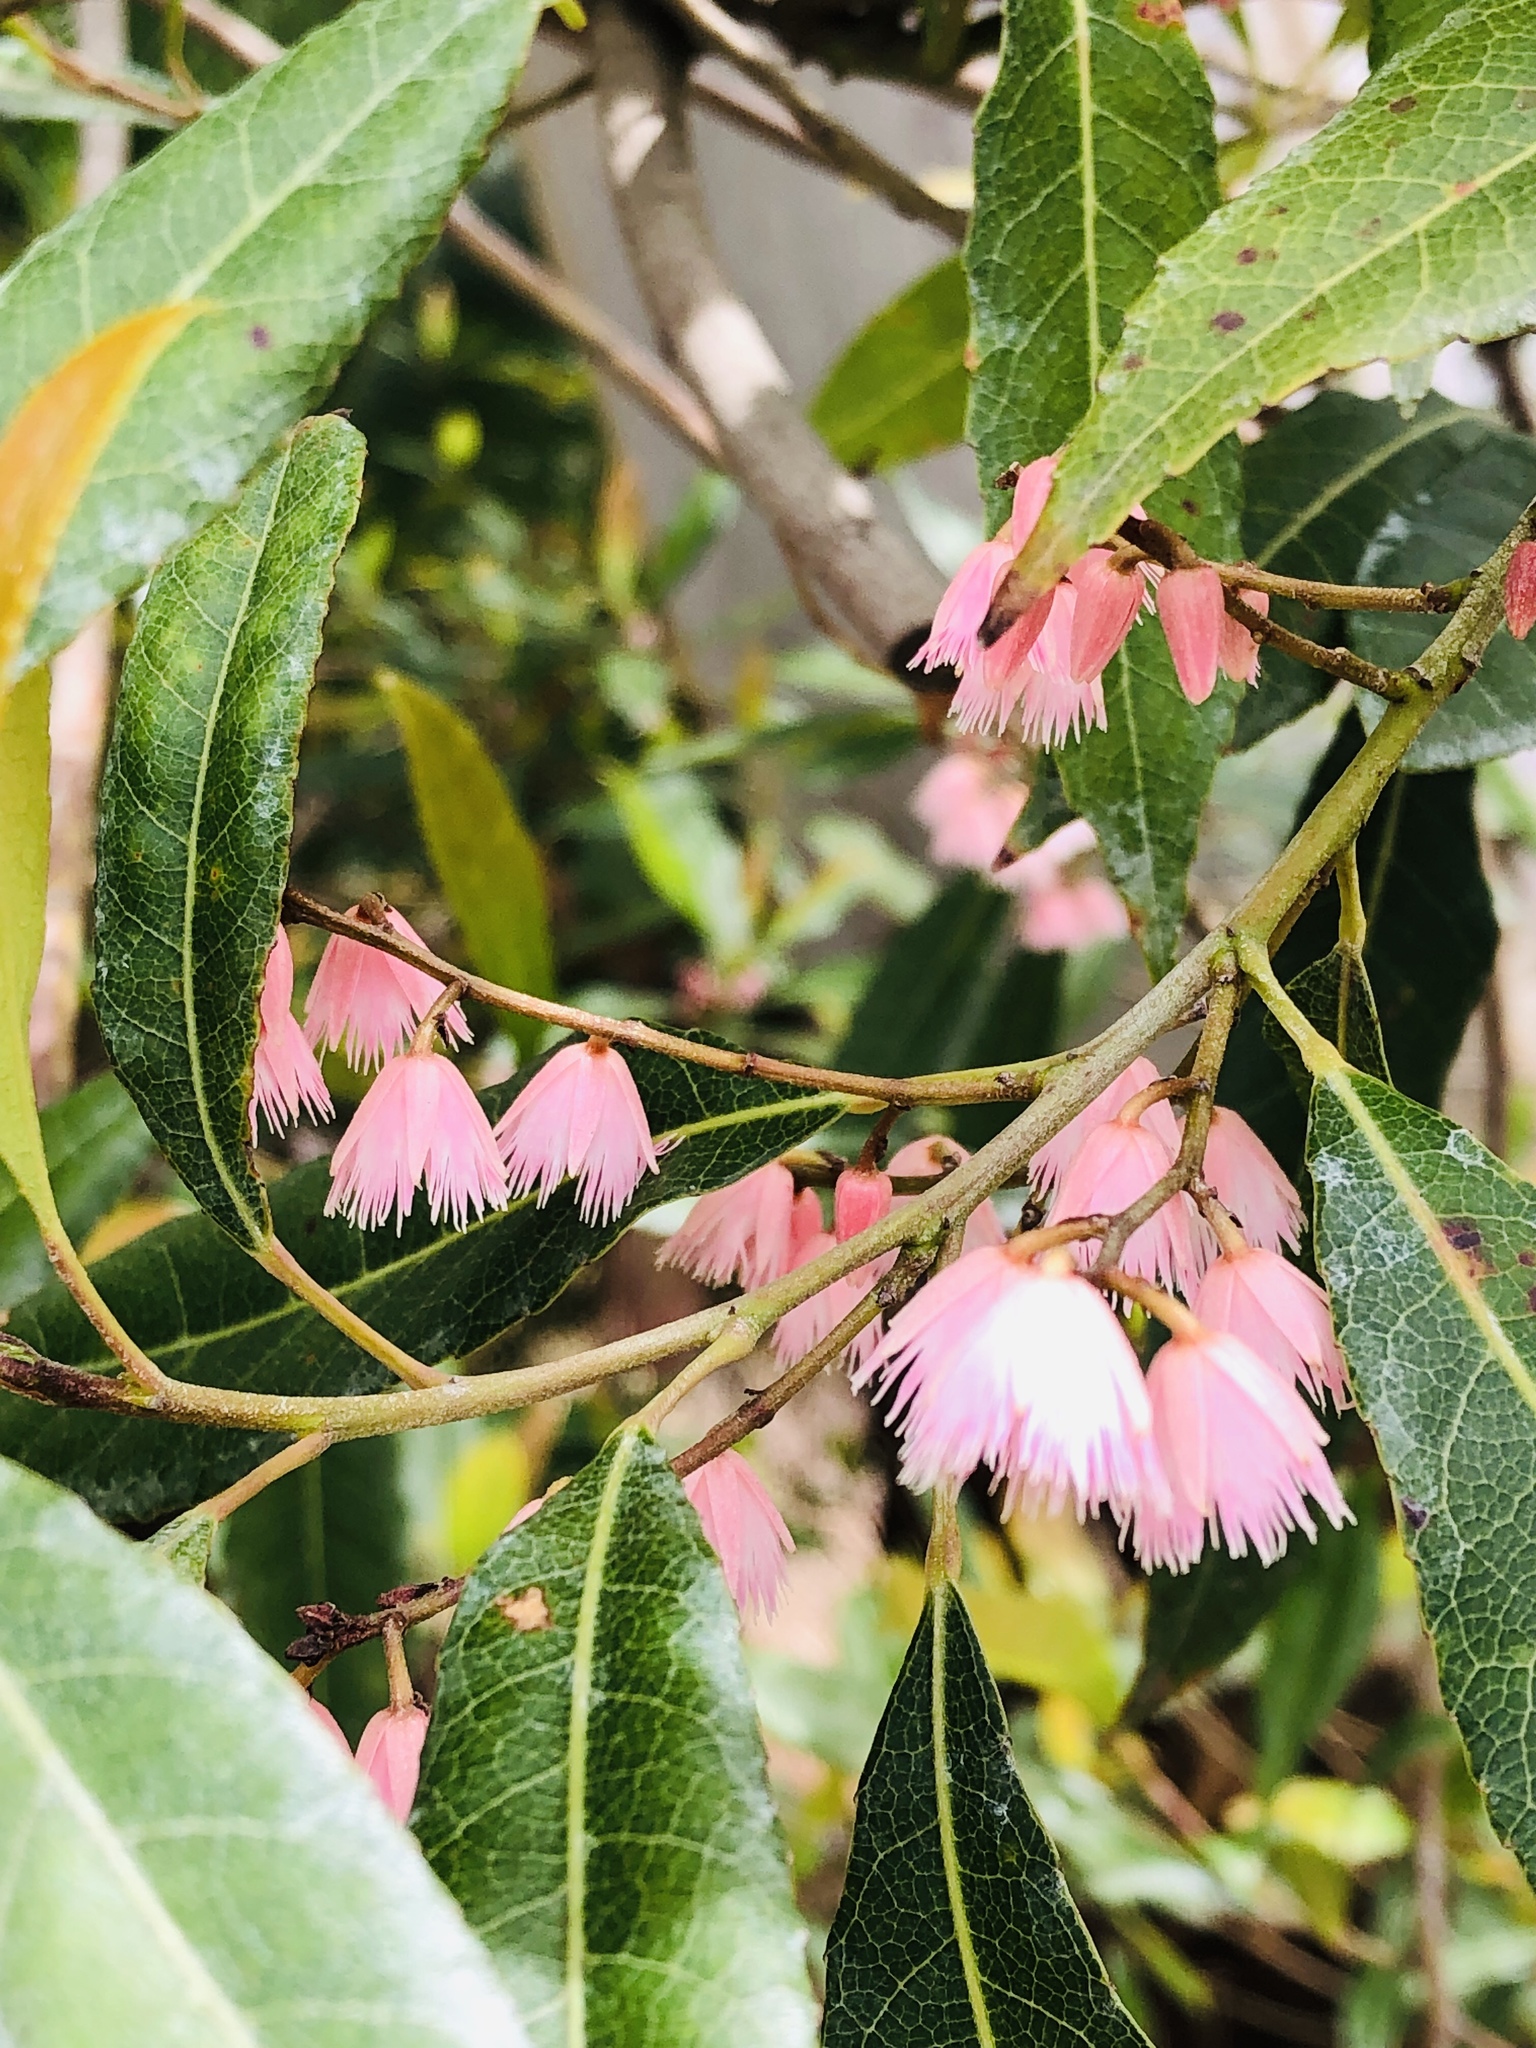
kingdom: Plantae
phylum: Tracheophyta
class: Magnoliopsida
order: Oxalidales
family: Elaeocarpaceae
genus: Elaeocarpus
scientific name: Elaeocarpus reticulatus
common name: Ash quandong
